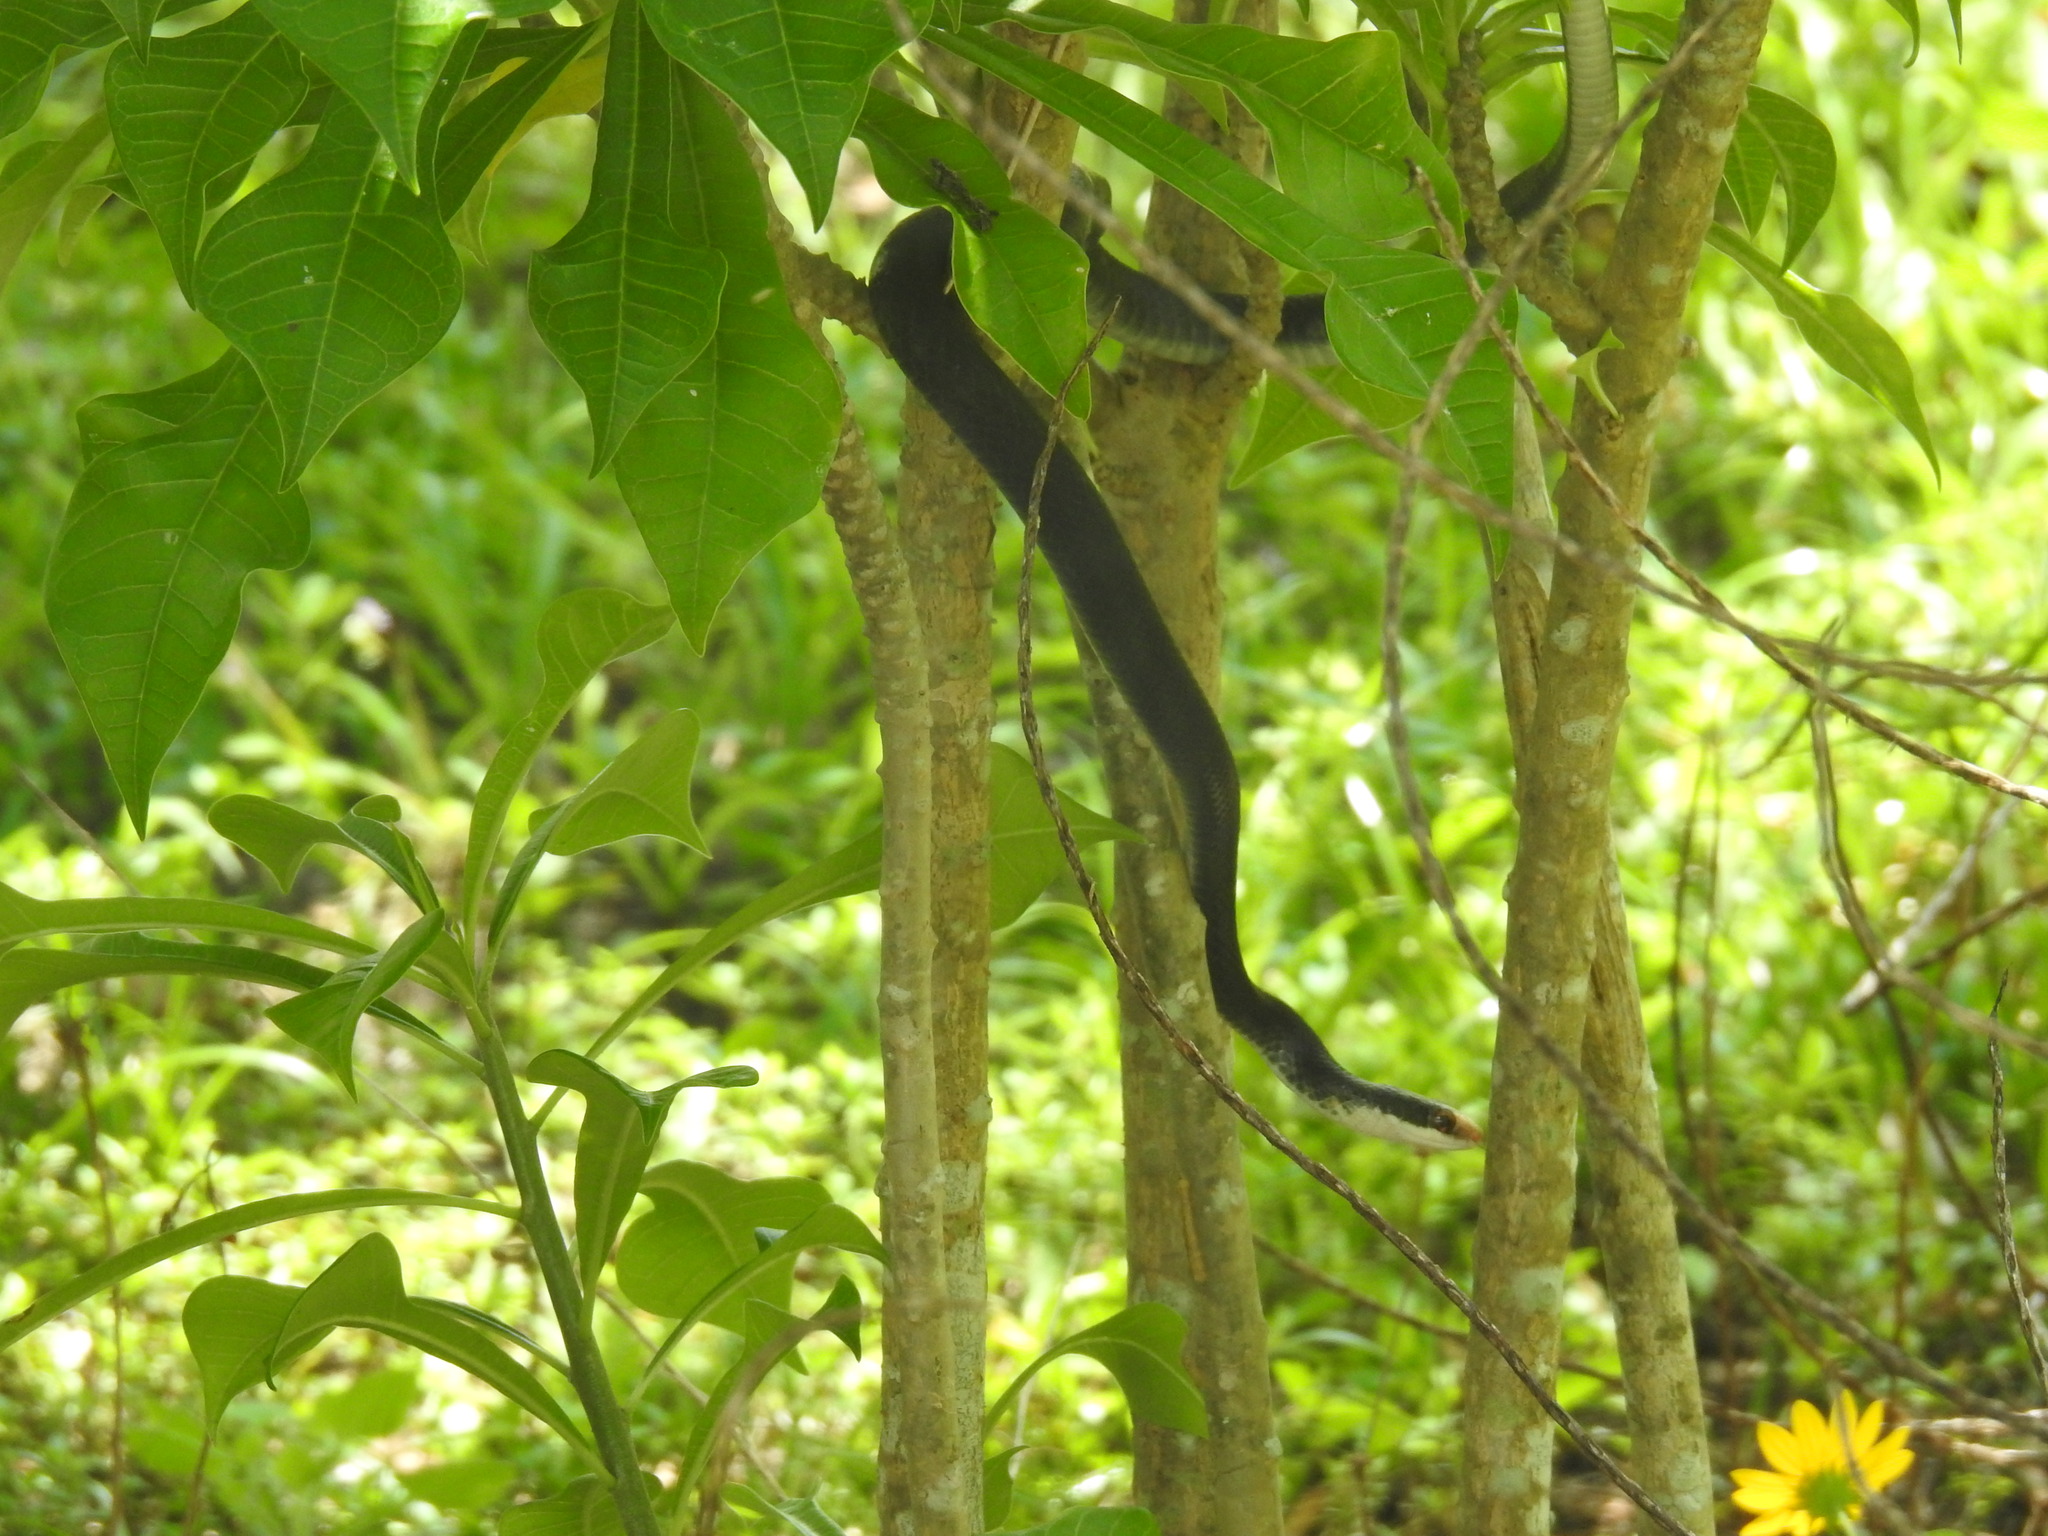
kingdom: Animalia
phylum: Chordata
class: Squamata
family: Colubridae
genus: Coluber
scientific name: Coluber constrictor
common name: Eastern racer
